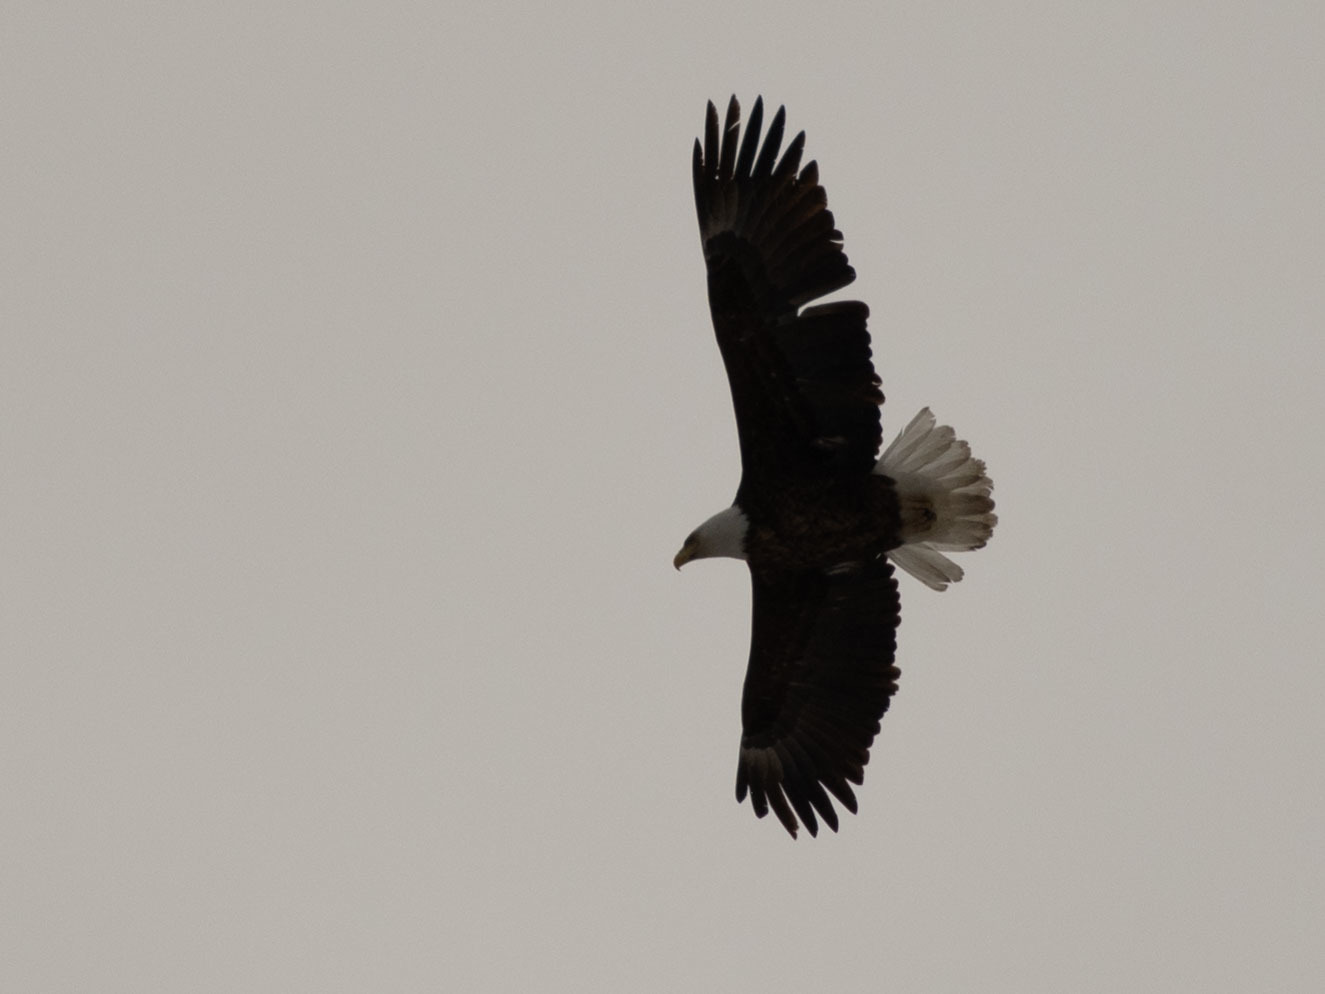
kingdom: Animalia
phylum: Chordata
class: Aves
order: Accipitriformes
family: Accipitridae
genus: Haliaeetus
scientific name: Haliaeetus leucocephalus
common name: Bald eagle
